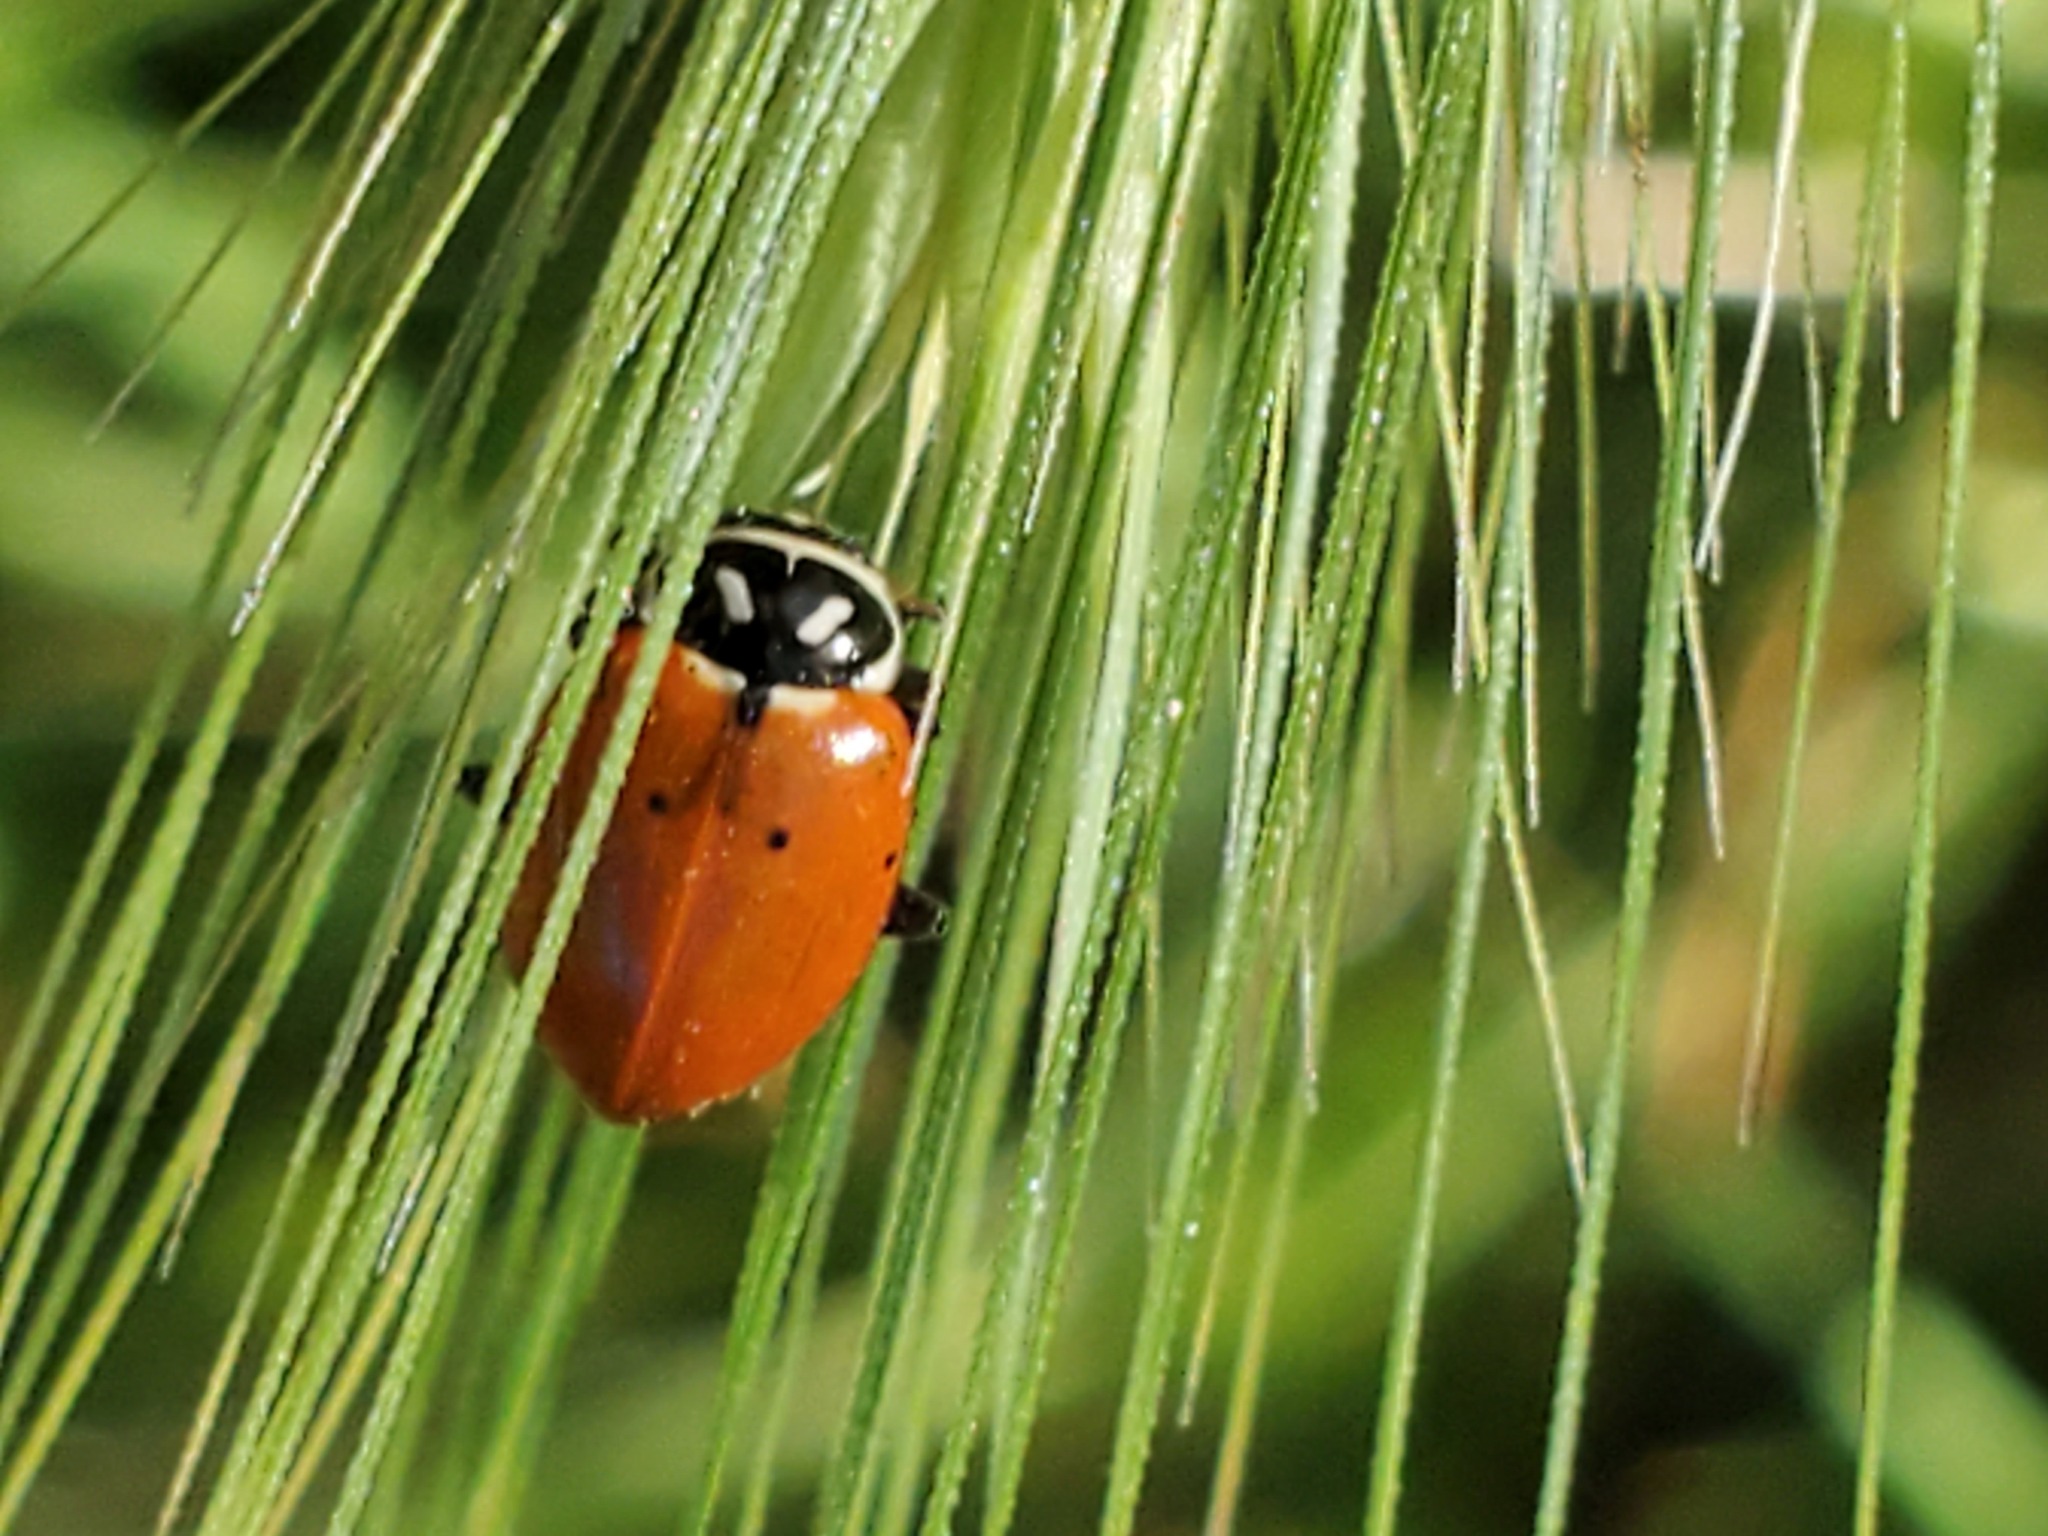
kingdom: Animalia
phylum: Arthropoda
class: Insecta
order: Coleoptera
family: Coccinellidae
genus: Hippodamia
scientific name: Hippodamia convergens
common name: Convergent lady beetle
